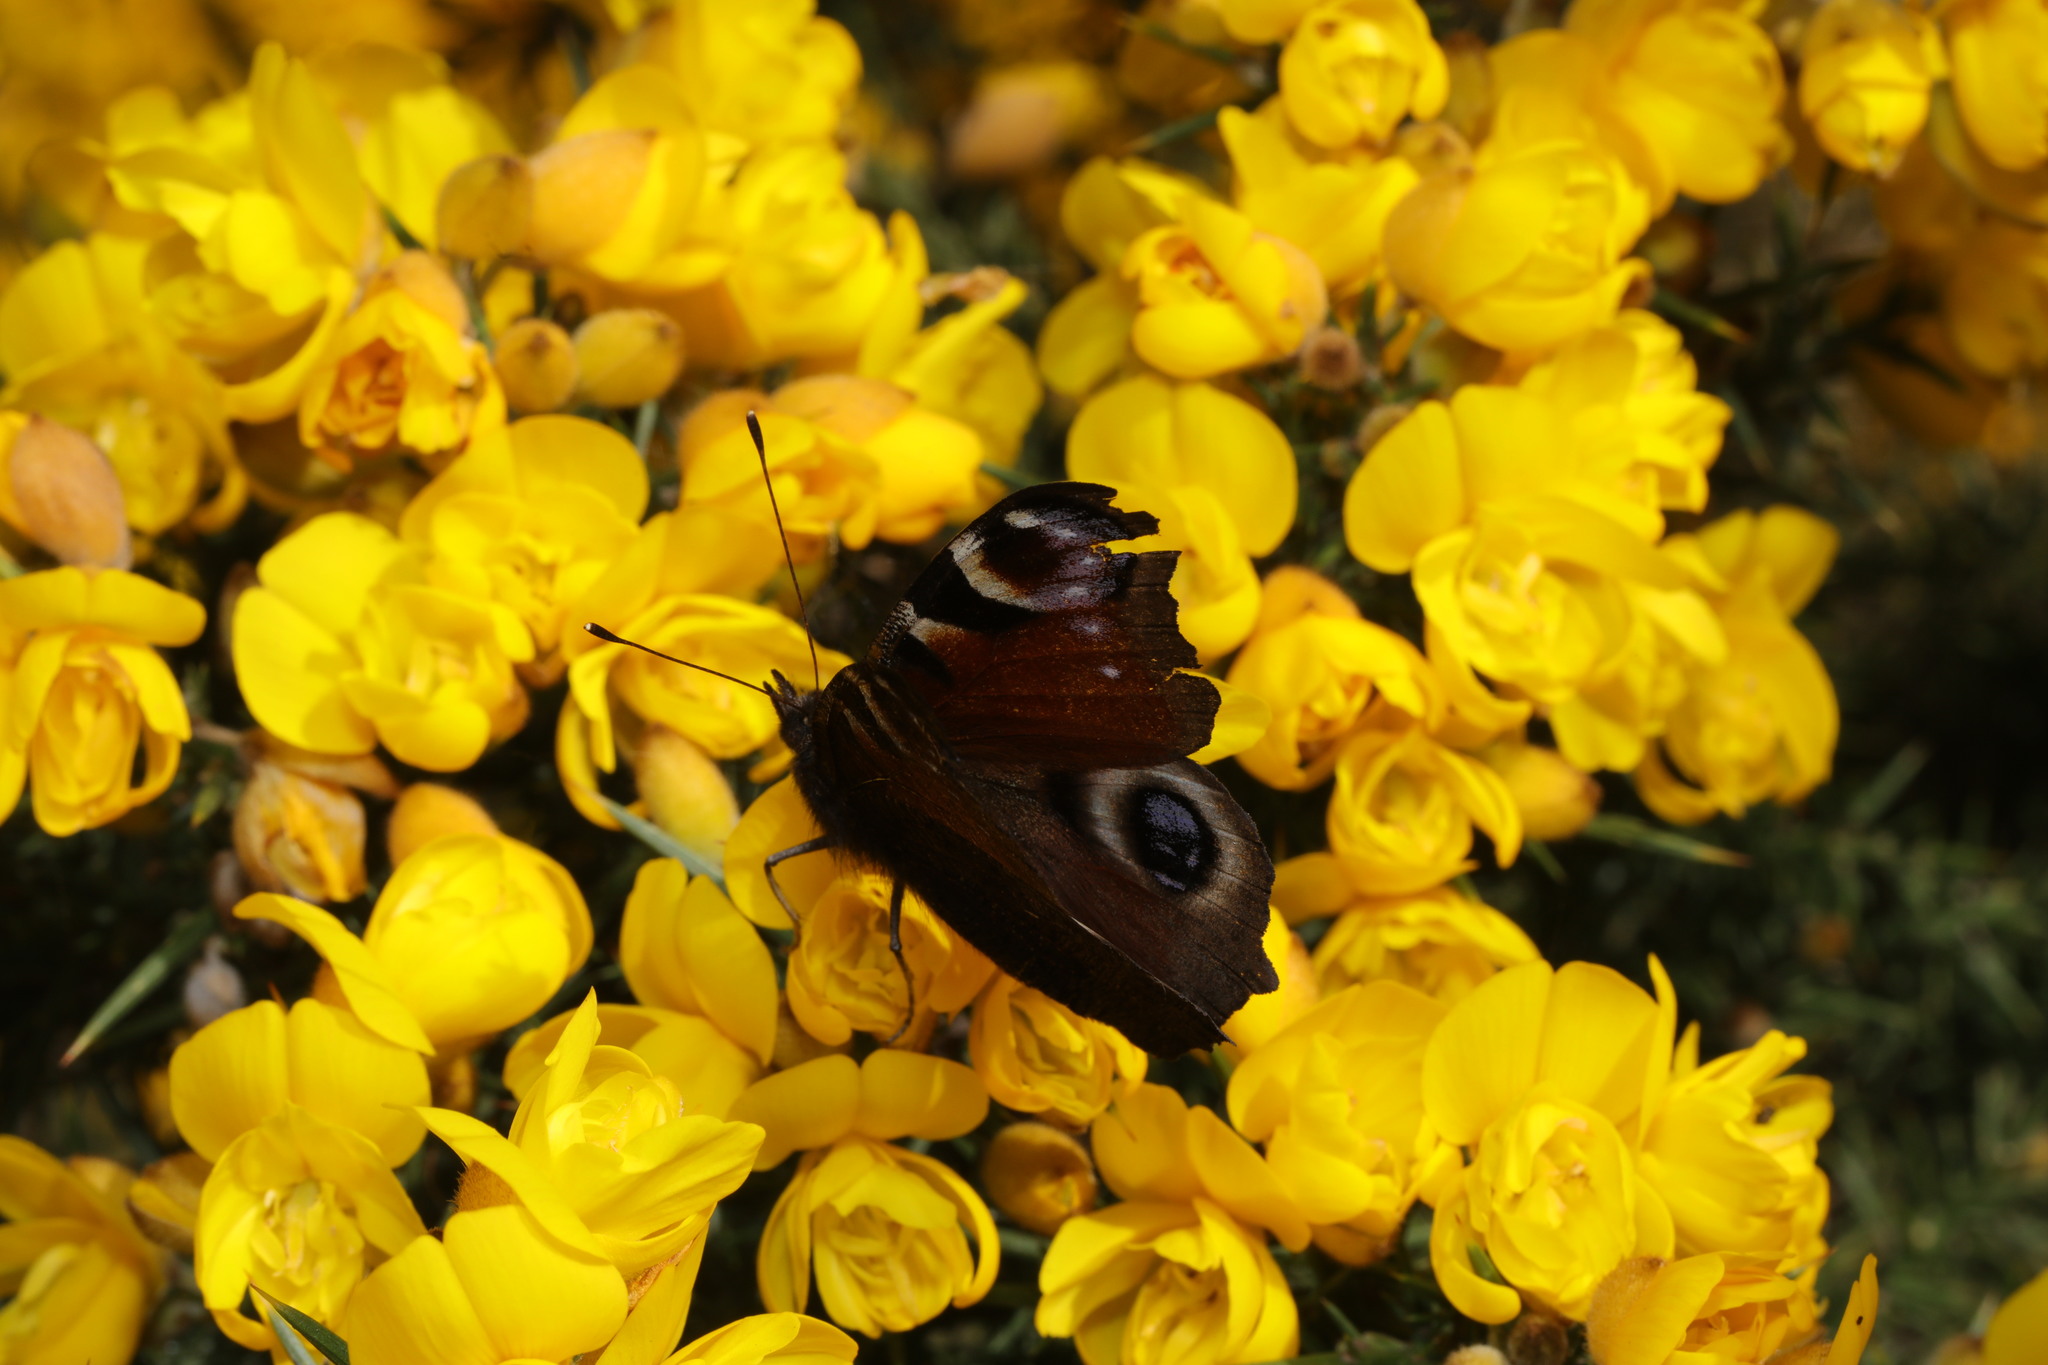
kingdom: Animalia
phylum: Arthropoda
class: Insecta
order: Lepidoptera
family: Nymphalidae
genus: Aglais
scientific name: Aglais io
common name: Peacock
